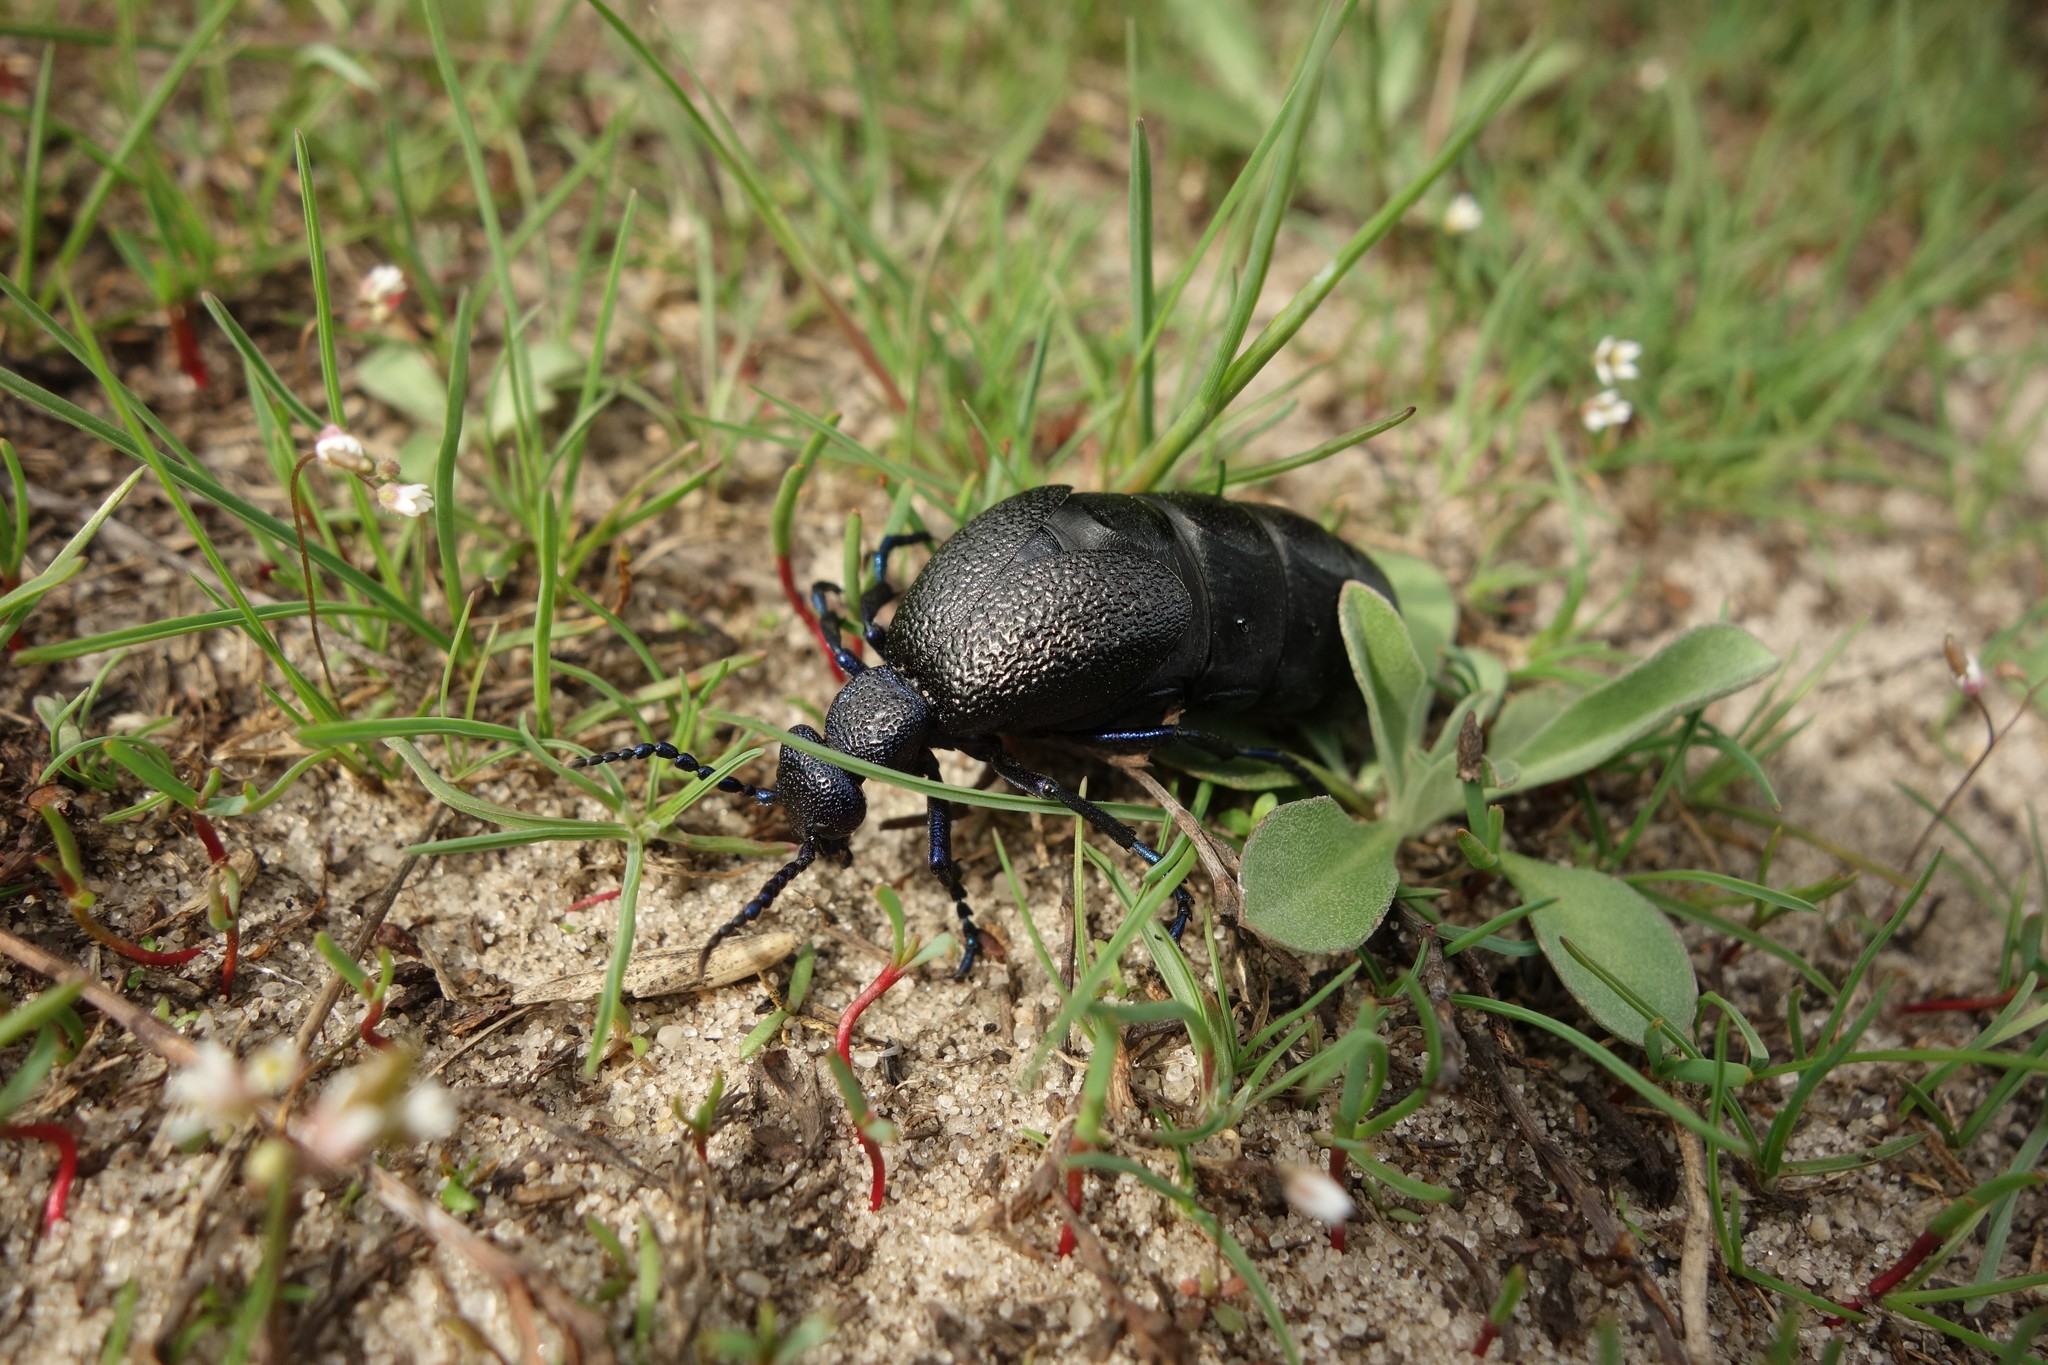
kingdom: Animalia
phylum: Arthropoda
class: Insecta
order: Coleoptera
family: Meloidae
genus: Meloe
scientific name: Meloe proscarabaeus
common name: Black oil-beetle
